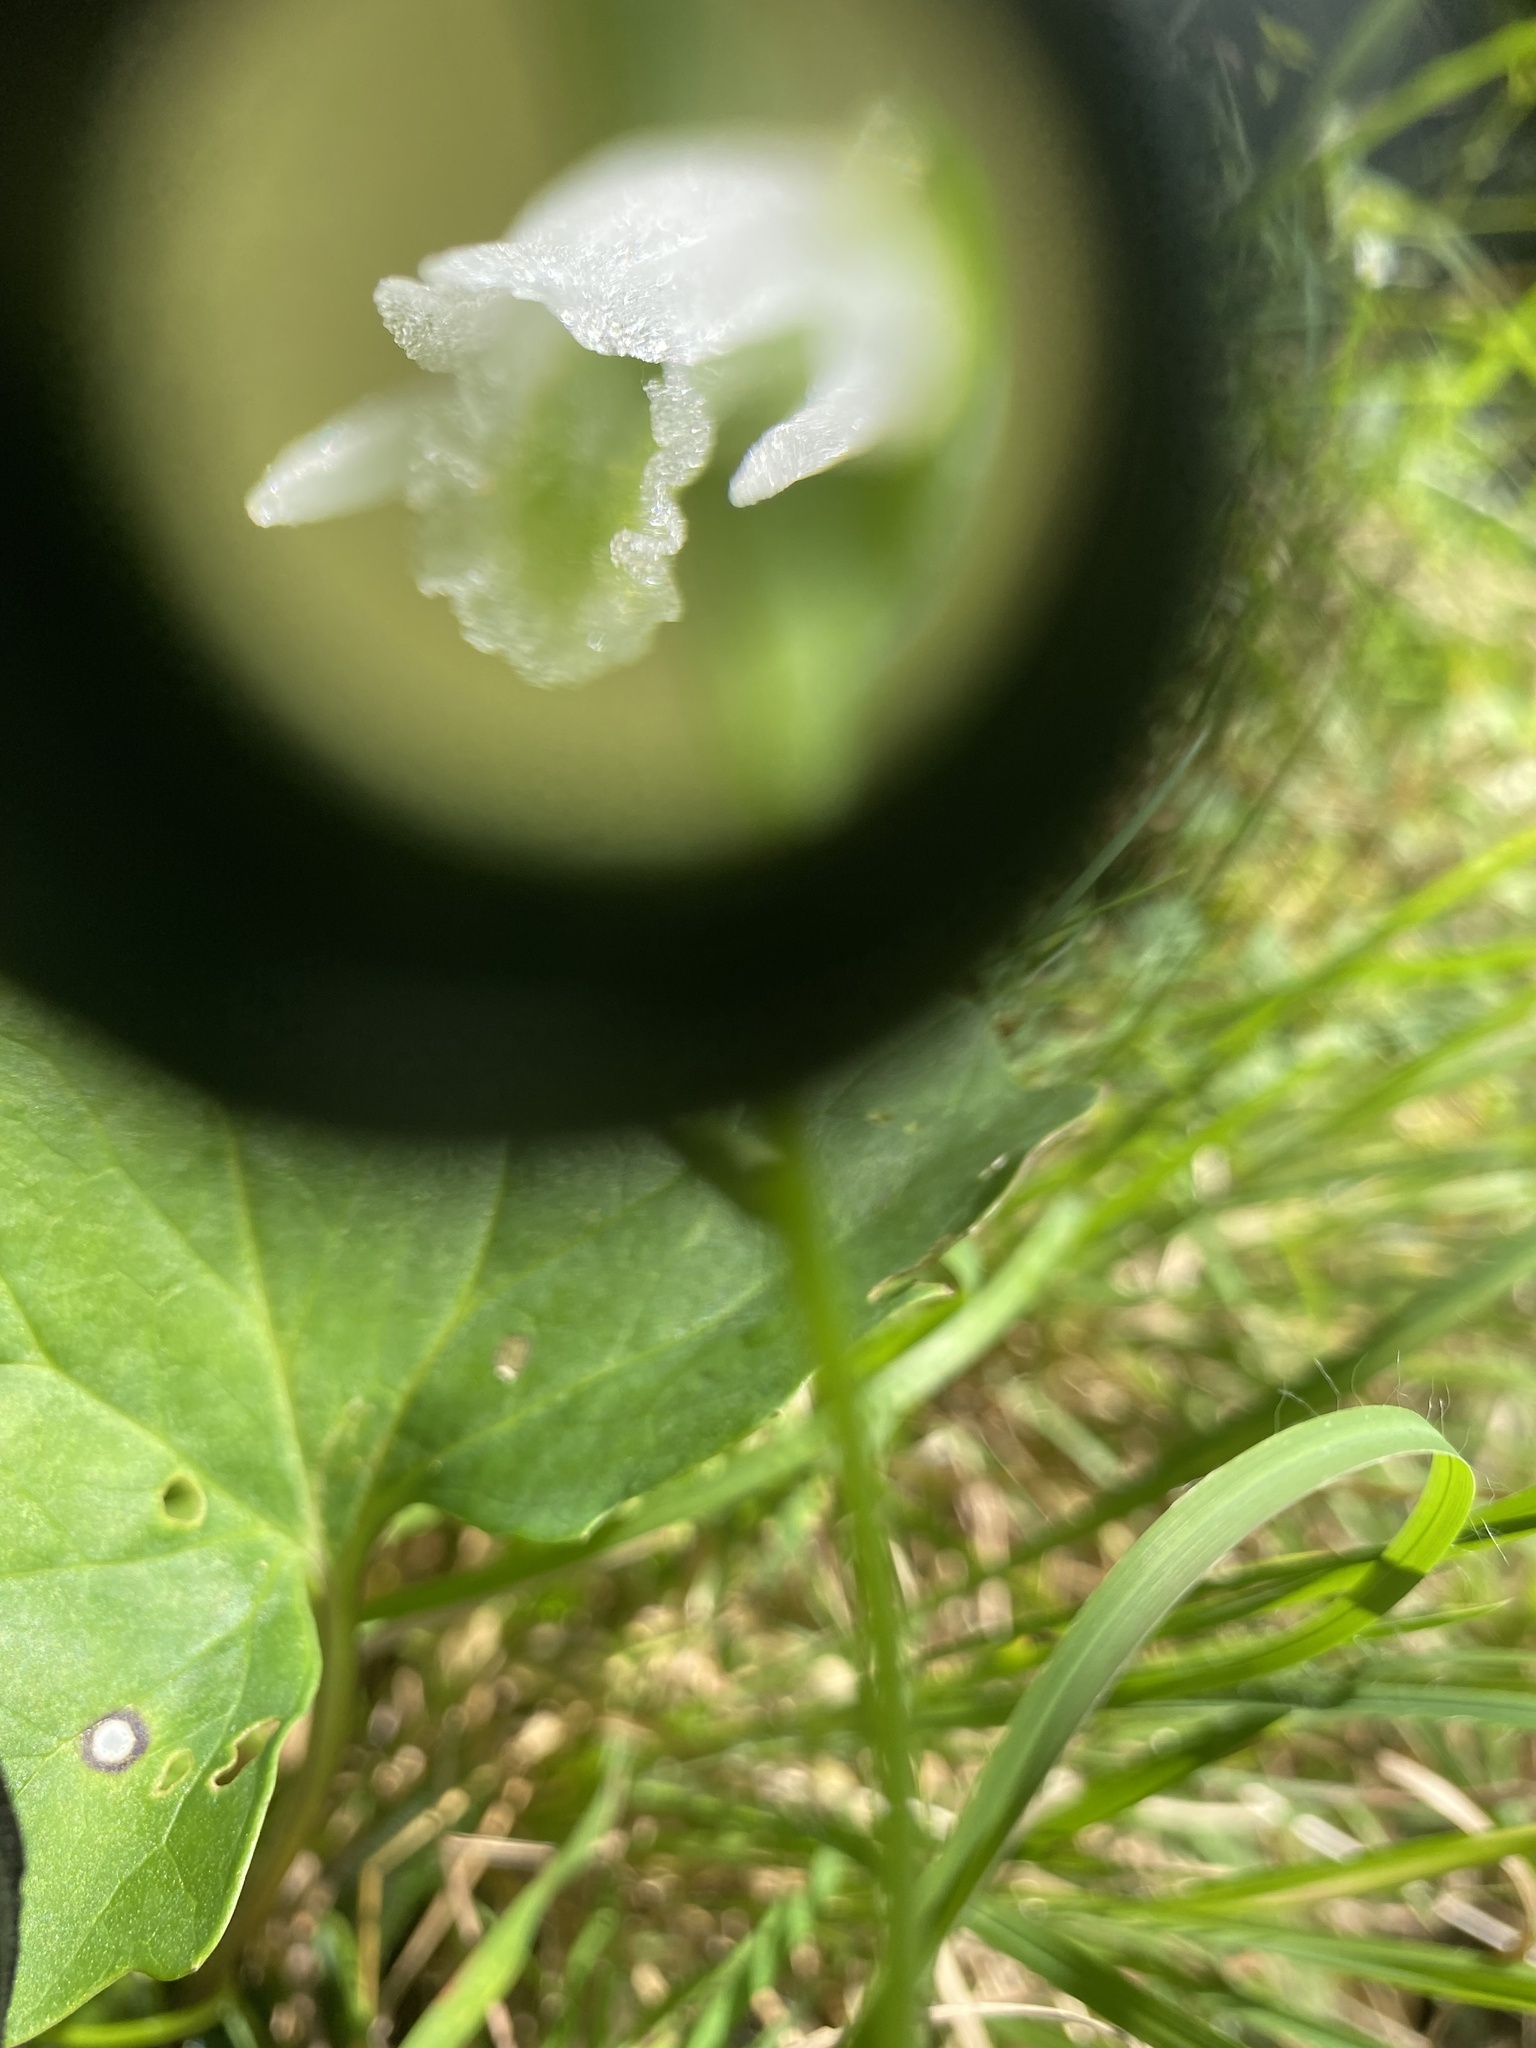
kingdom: Plantae
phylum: Tracheophyta
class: Liliopsida
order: Asparagales
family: Orchidaceae
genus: Spiranthes
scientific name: Spiranthes lacera
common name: Northern slender ladies'-tresses
